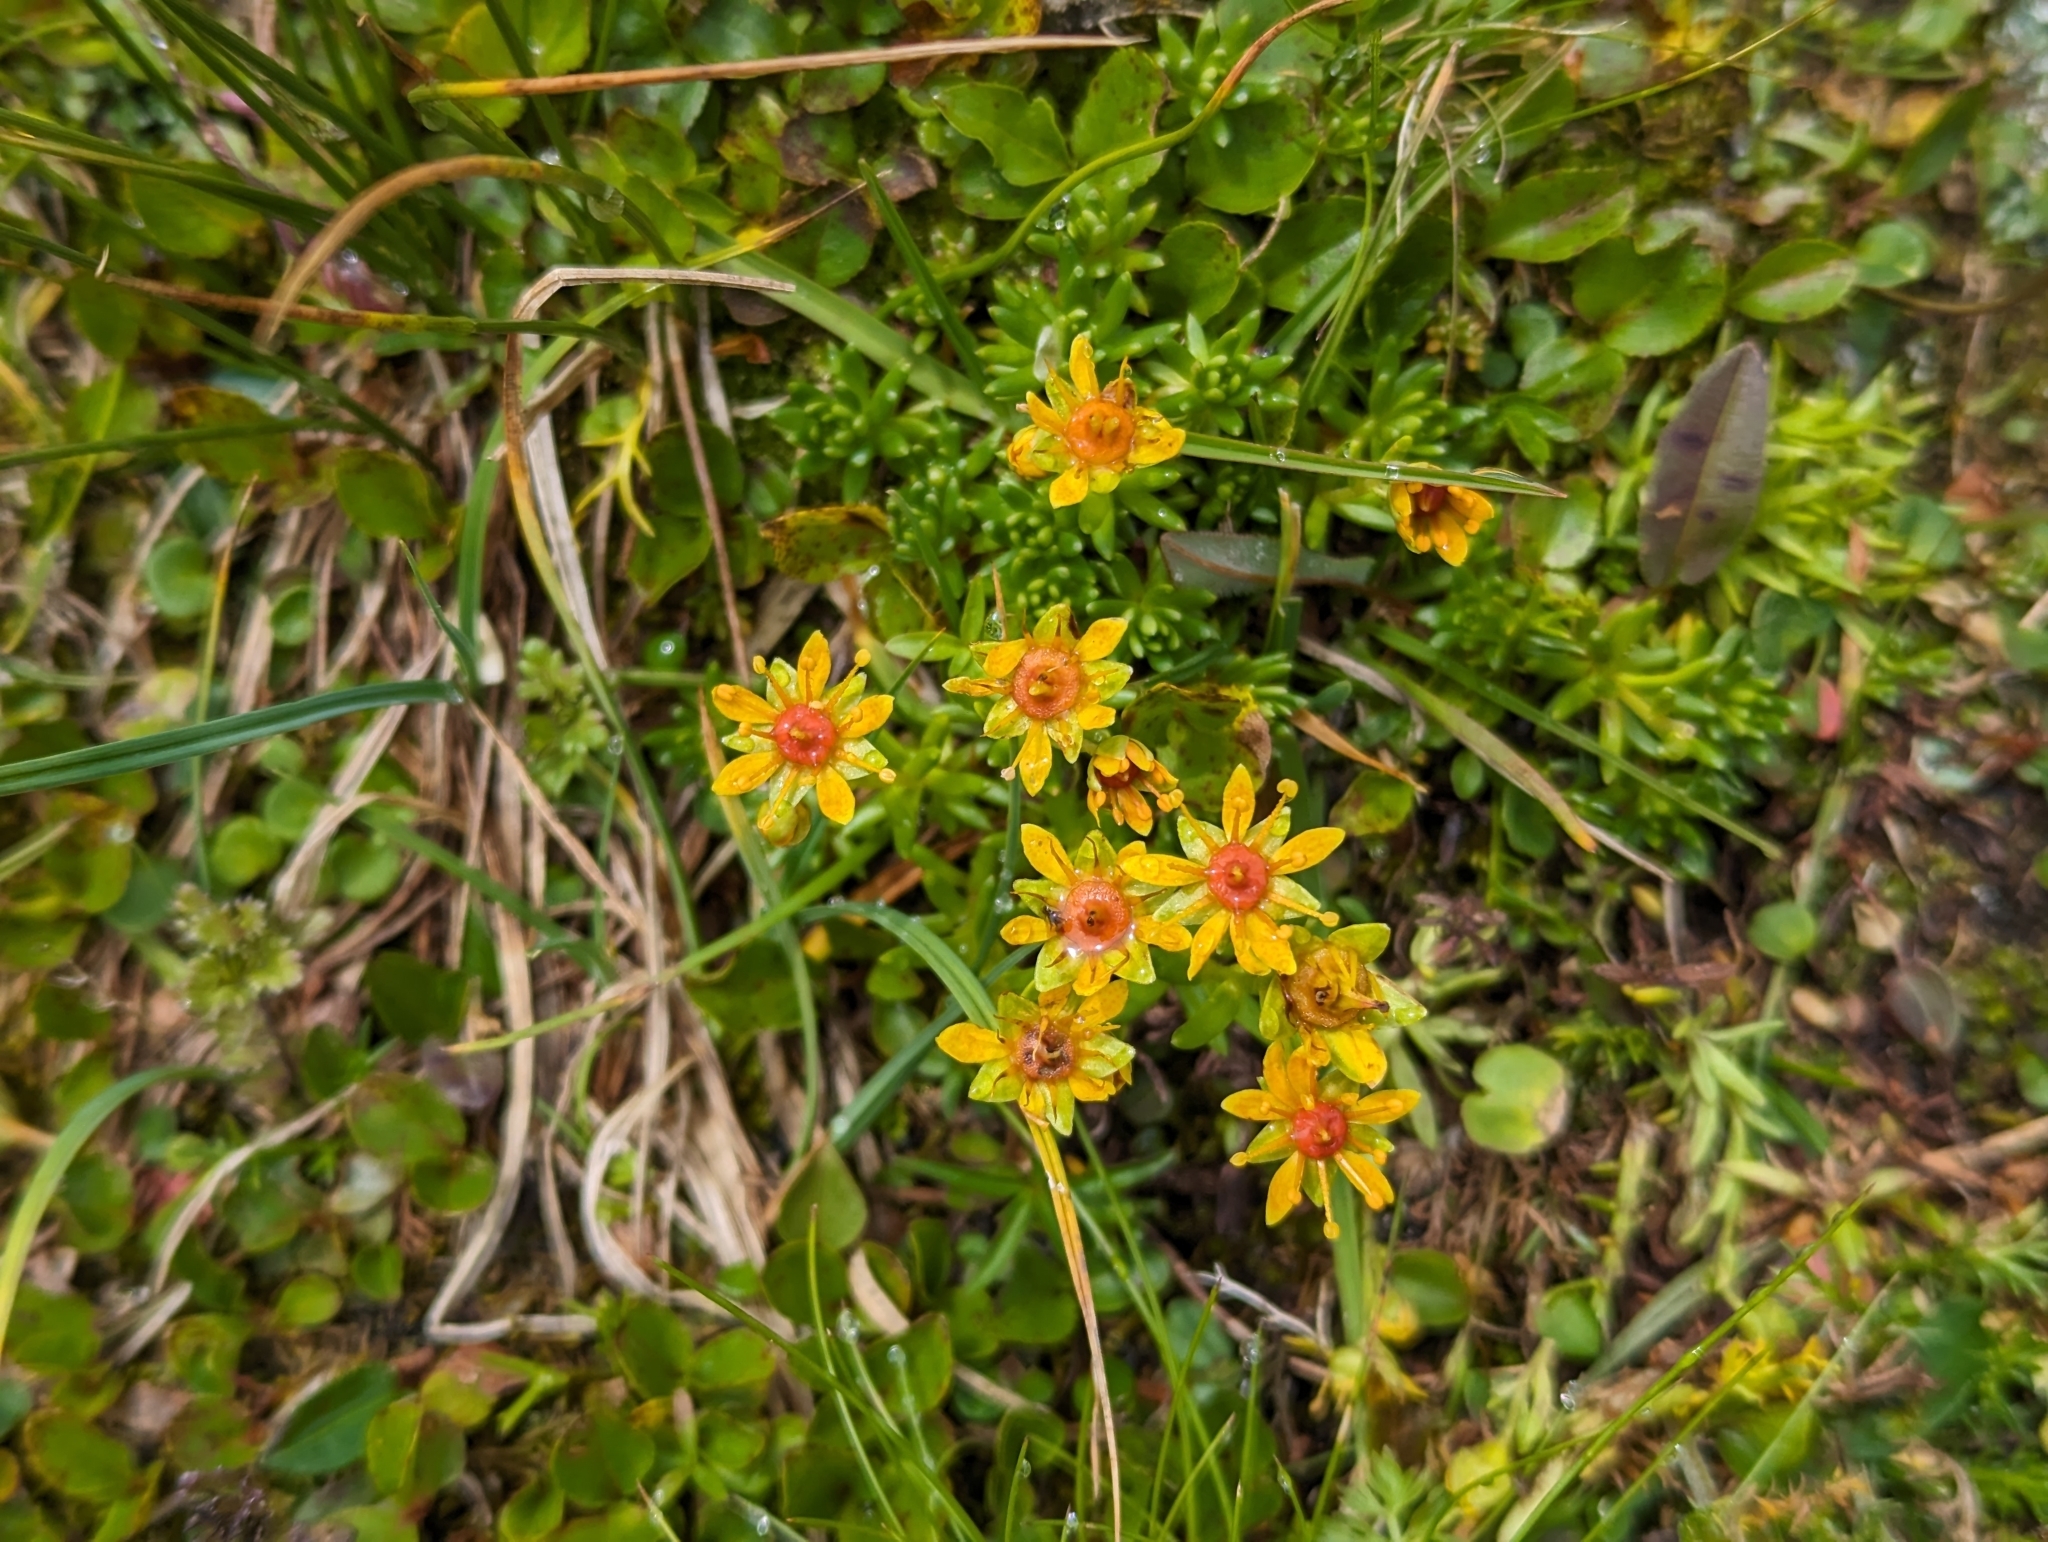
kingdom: Plantae
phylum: Tracheophyta
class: Magnoliopsida
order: Saxifragales
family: Saxifragaceae
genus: Saxifraga
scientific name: Saxifraga aizoides
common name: Yellow mountain saxifrage
